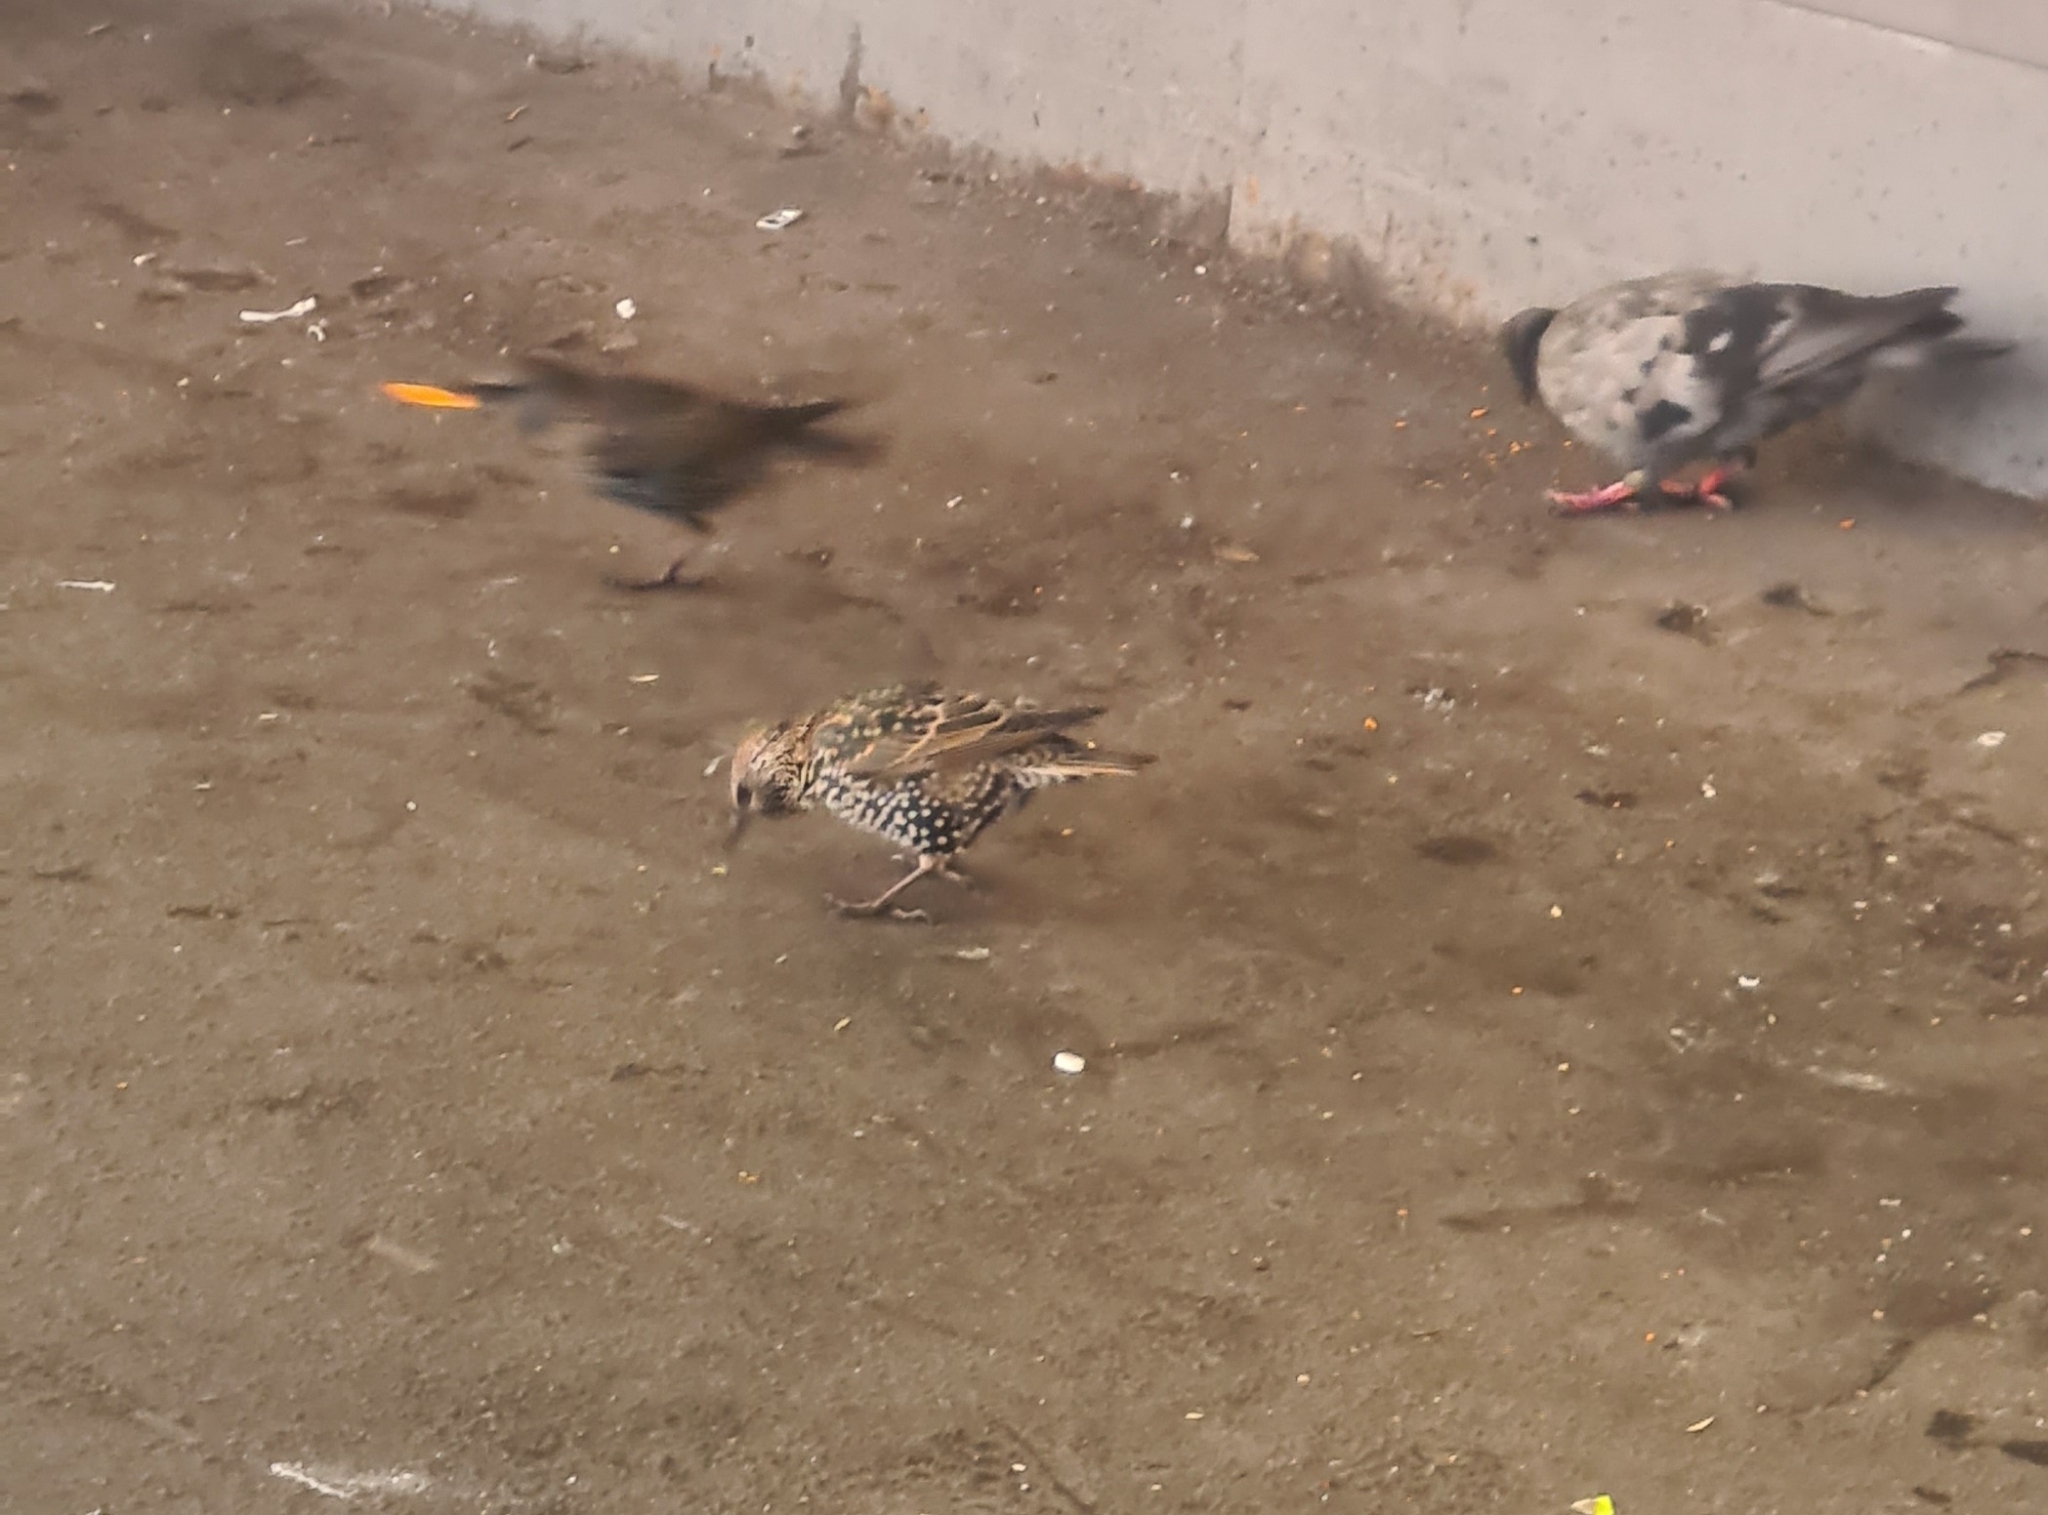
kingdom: Animalia
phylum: Chordata
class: Aves
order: Passeriformes
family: Sturnidae
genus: Sturnus
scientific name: Sturnus vulgaris
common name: Common starling
